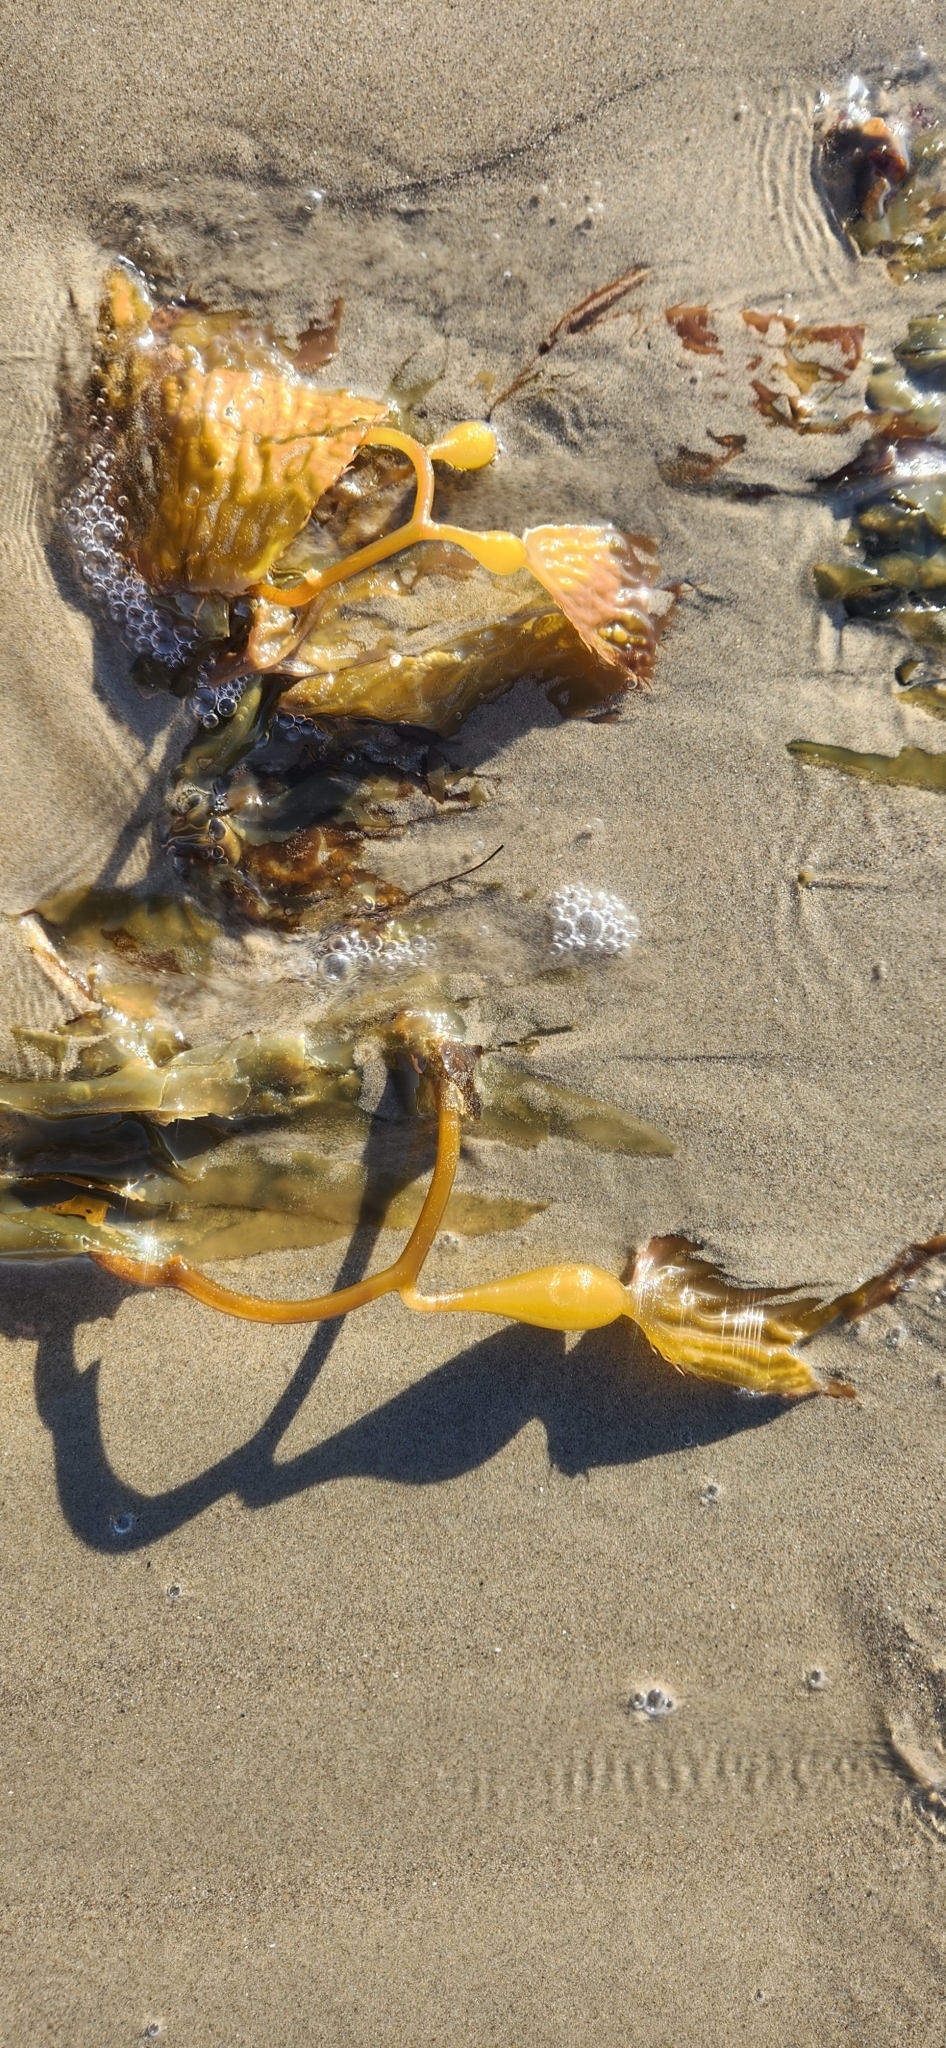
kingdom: Chromista
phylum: Ochrophyta
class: Phaeophyceae
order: Laminariales
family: Laminariaceae
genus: Macrocystis
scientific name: Macrocystis pyrifera
